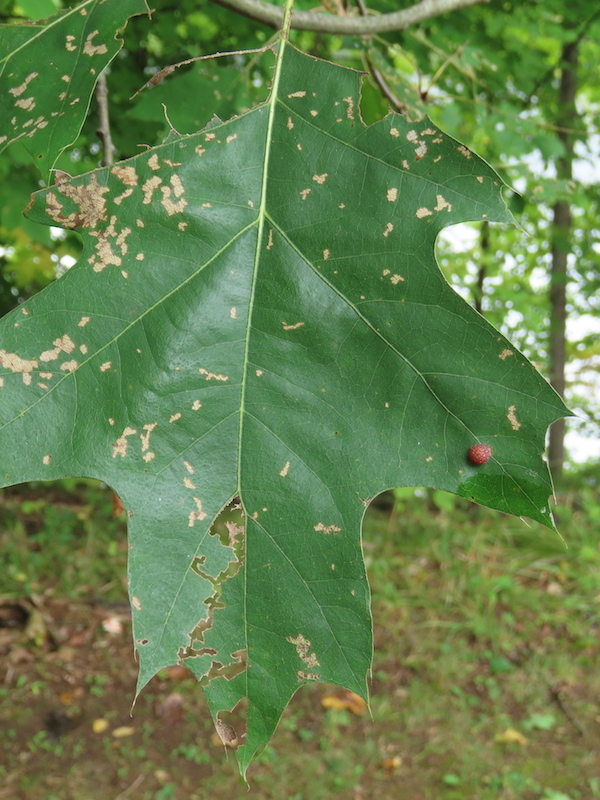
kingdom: Animalia
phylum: Arthropoda
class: Insecta
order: Diptera
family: Cecidomyiidae
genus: Polystepha
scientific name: Polystepha pilulae
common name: Oak leaf gall midge
